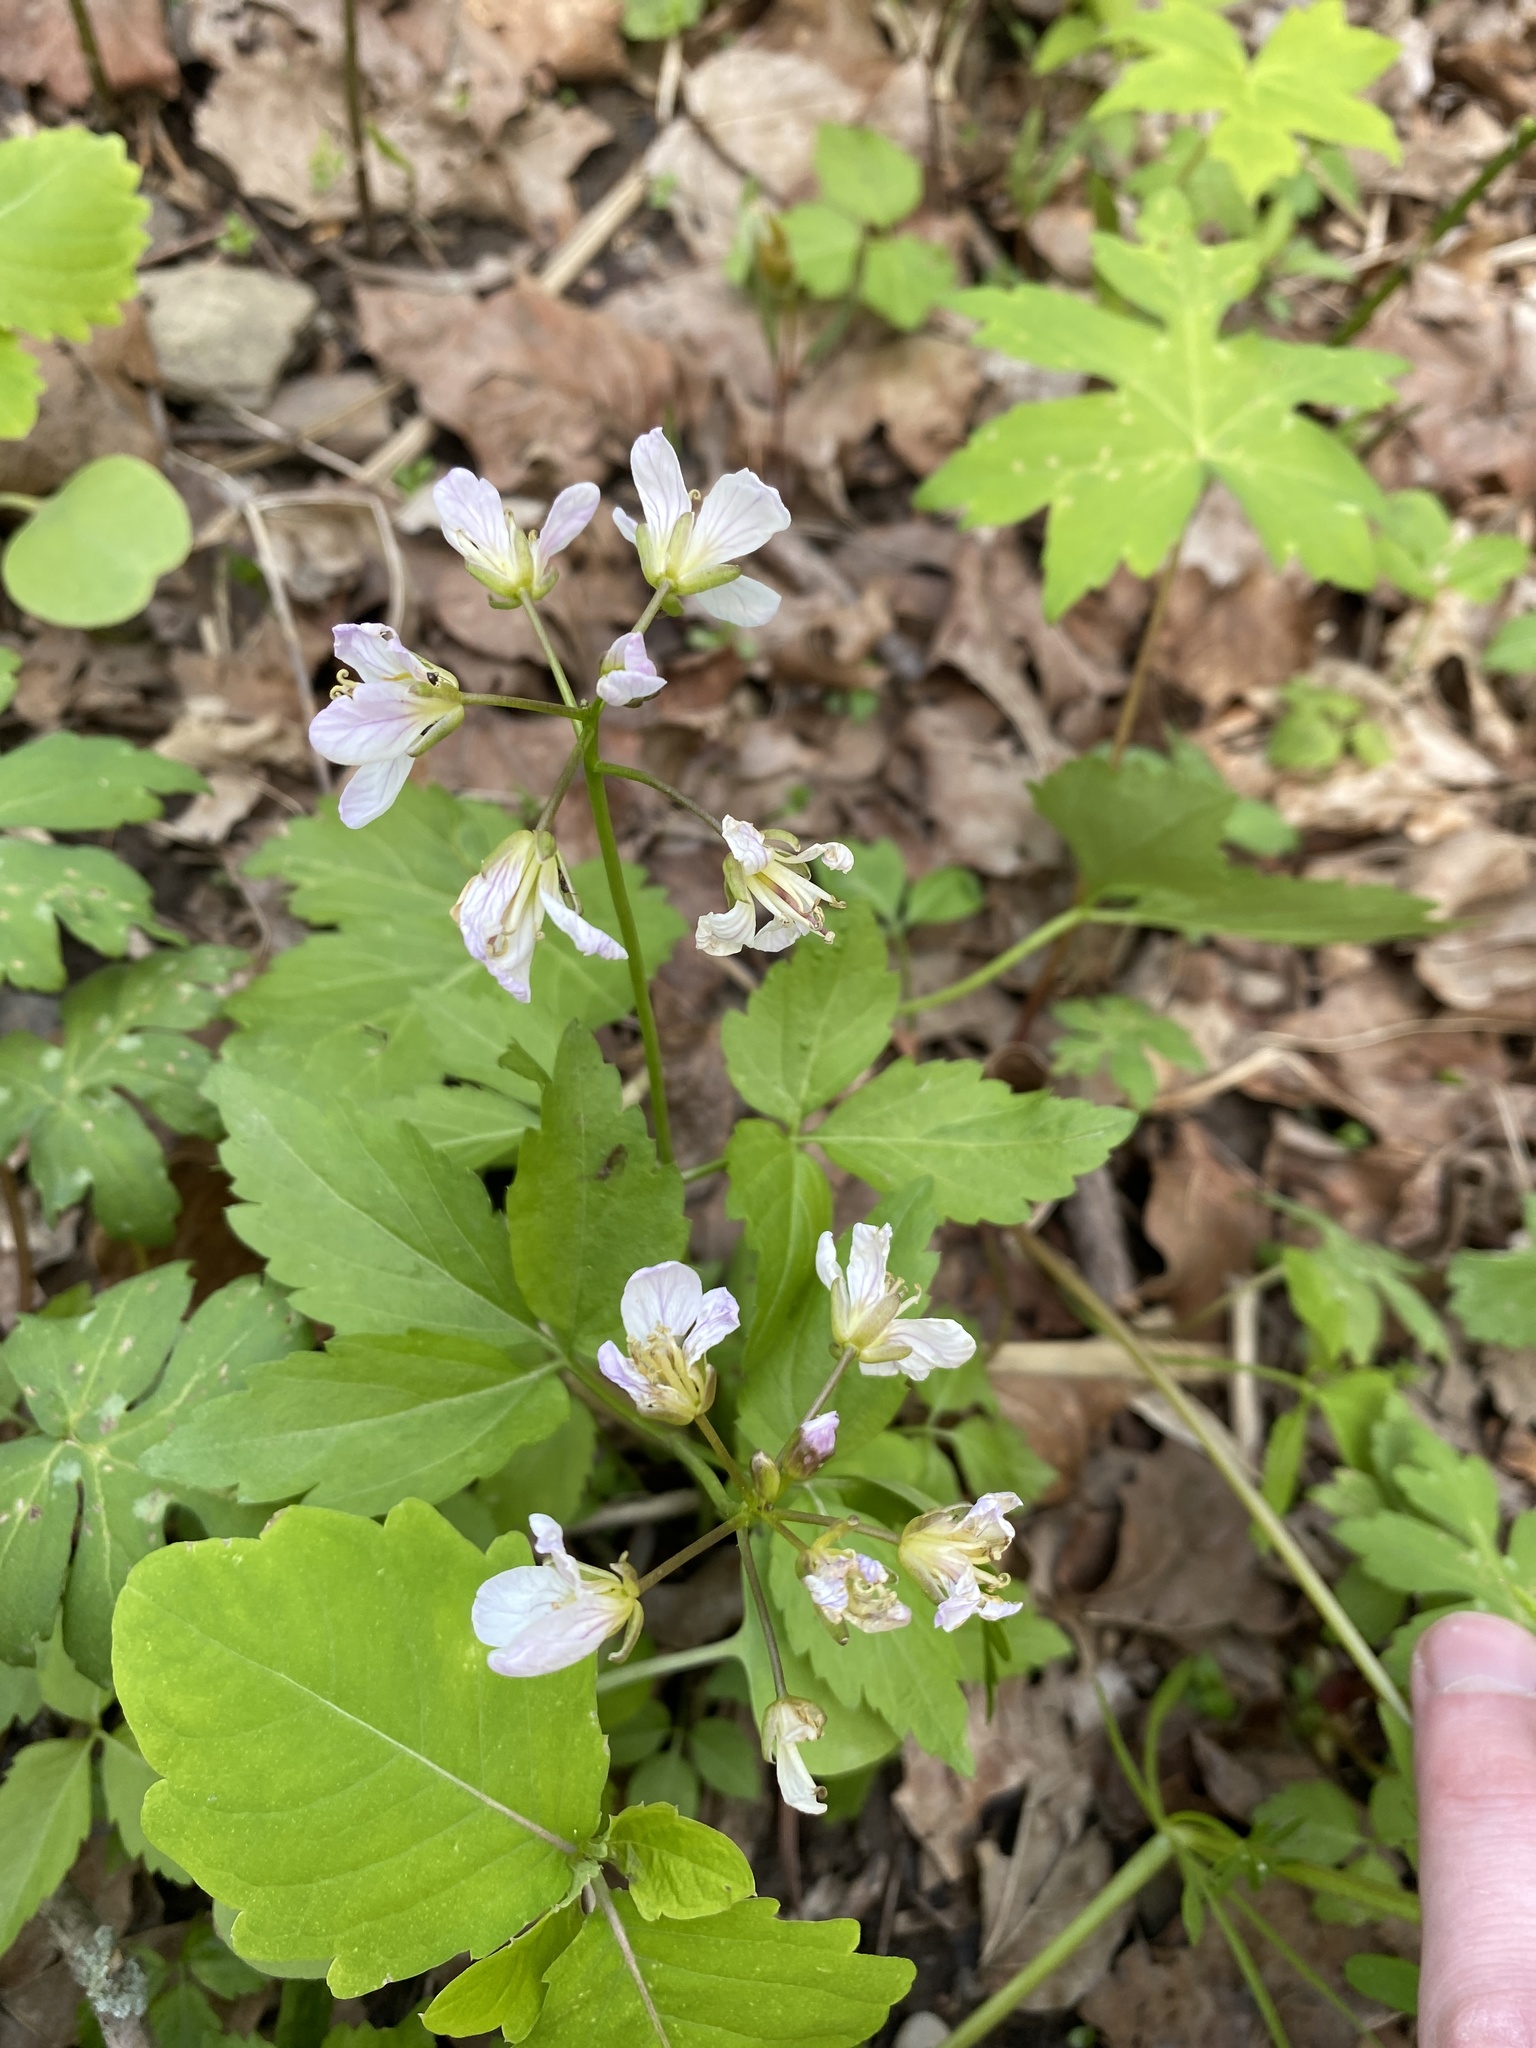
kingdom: Plantae
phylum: Tracheophyta
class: Magnoliopsida
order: Brassicales
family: Brassicaceae
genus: Cardamine
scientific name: Cardamine diphylla
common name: Broad-leaved toothwort
